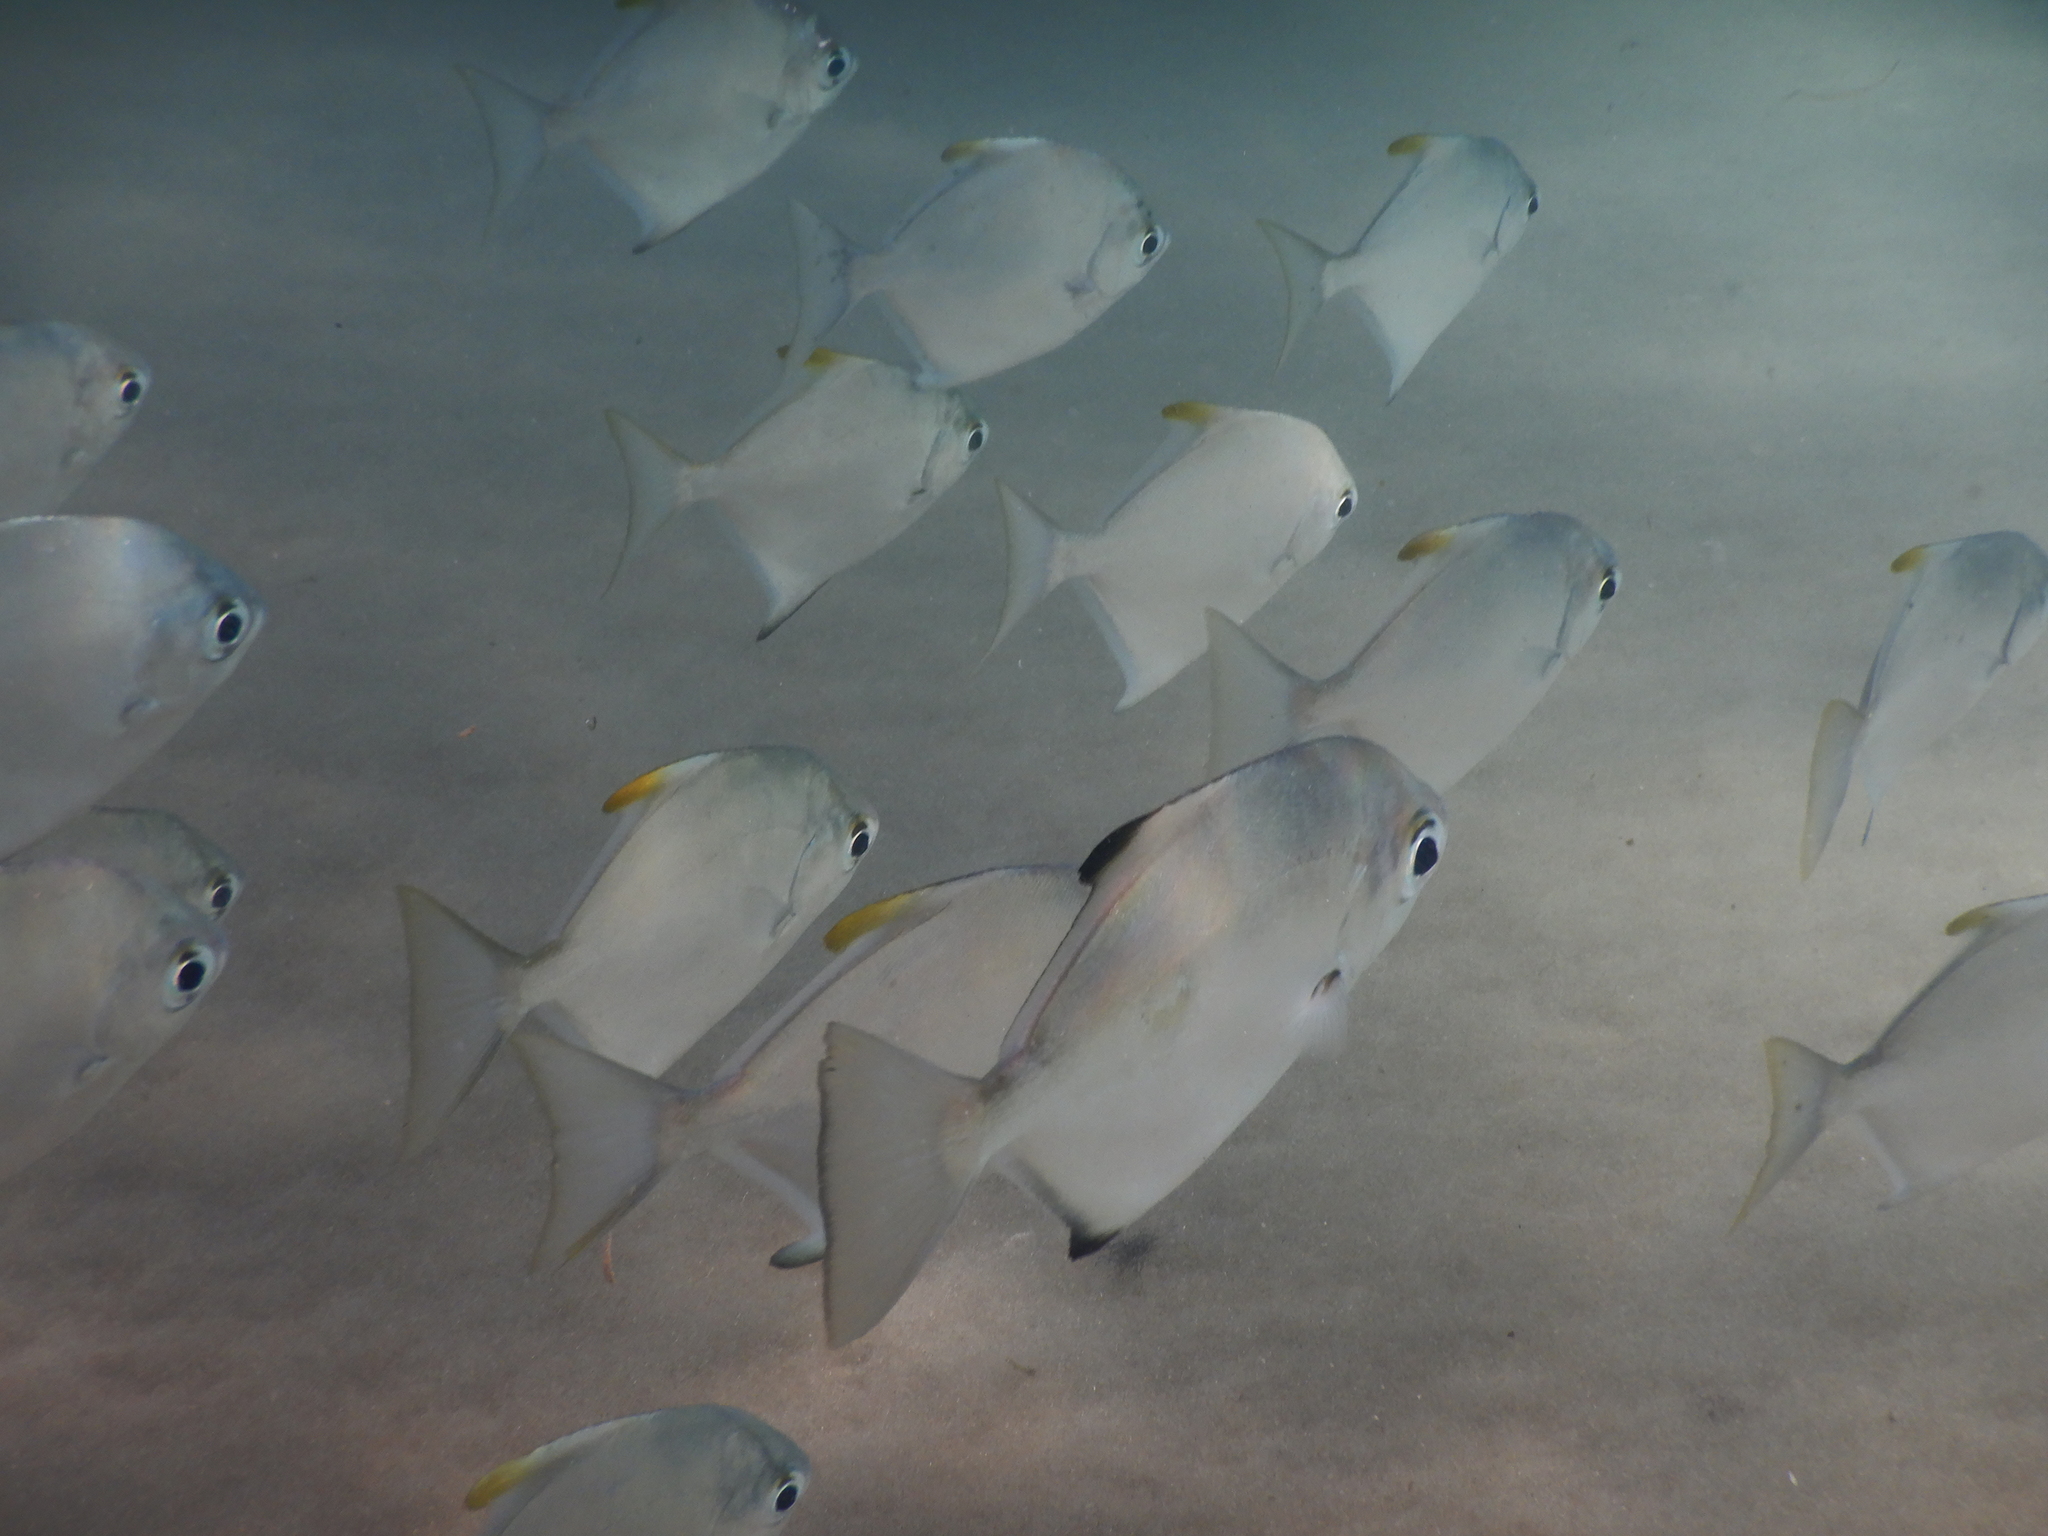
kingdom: Animalia
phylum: Chordata
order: Perciformes
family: Monodactylidae
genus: Monodactylus
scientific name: Monodactylus argenteus
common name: Silver moony
